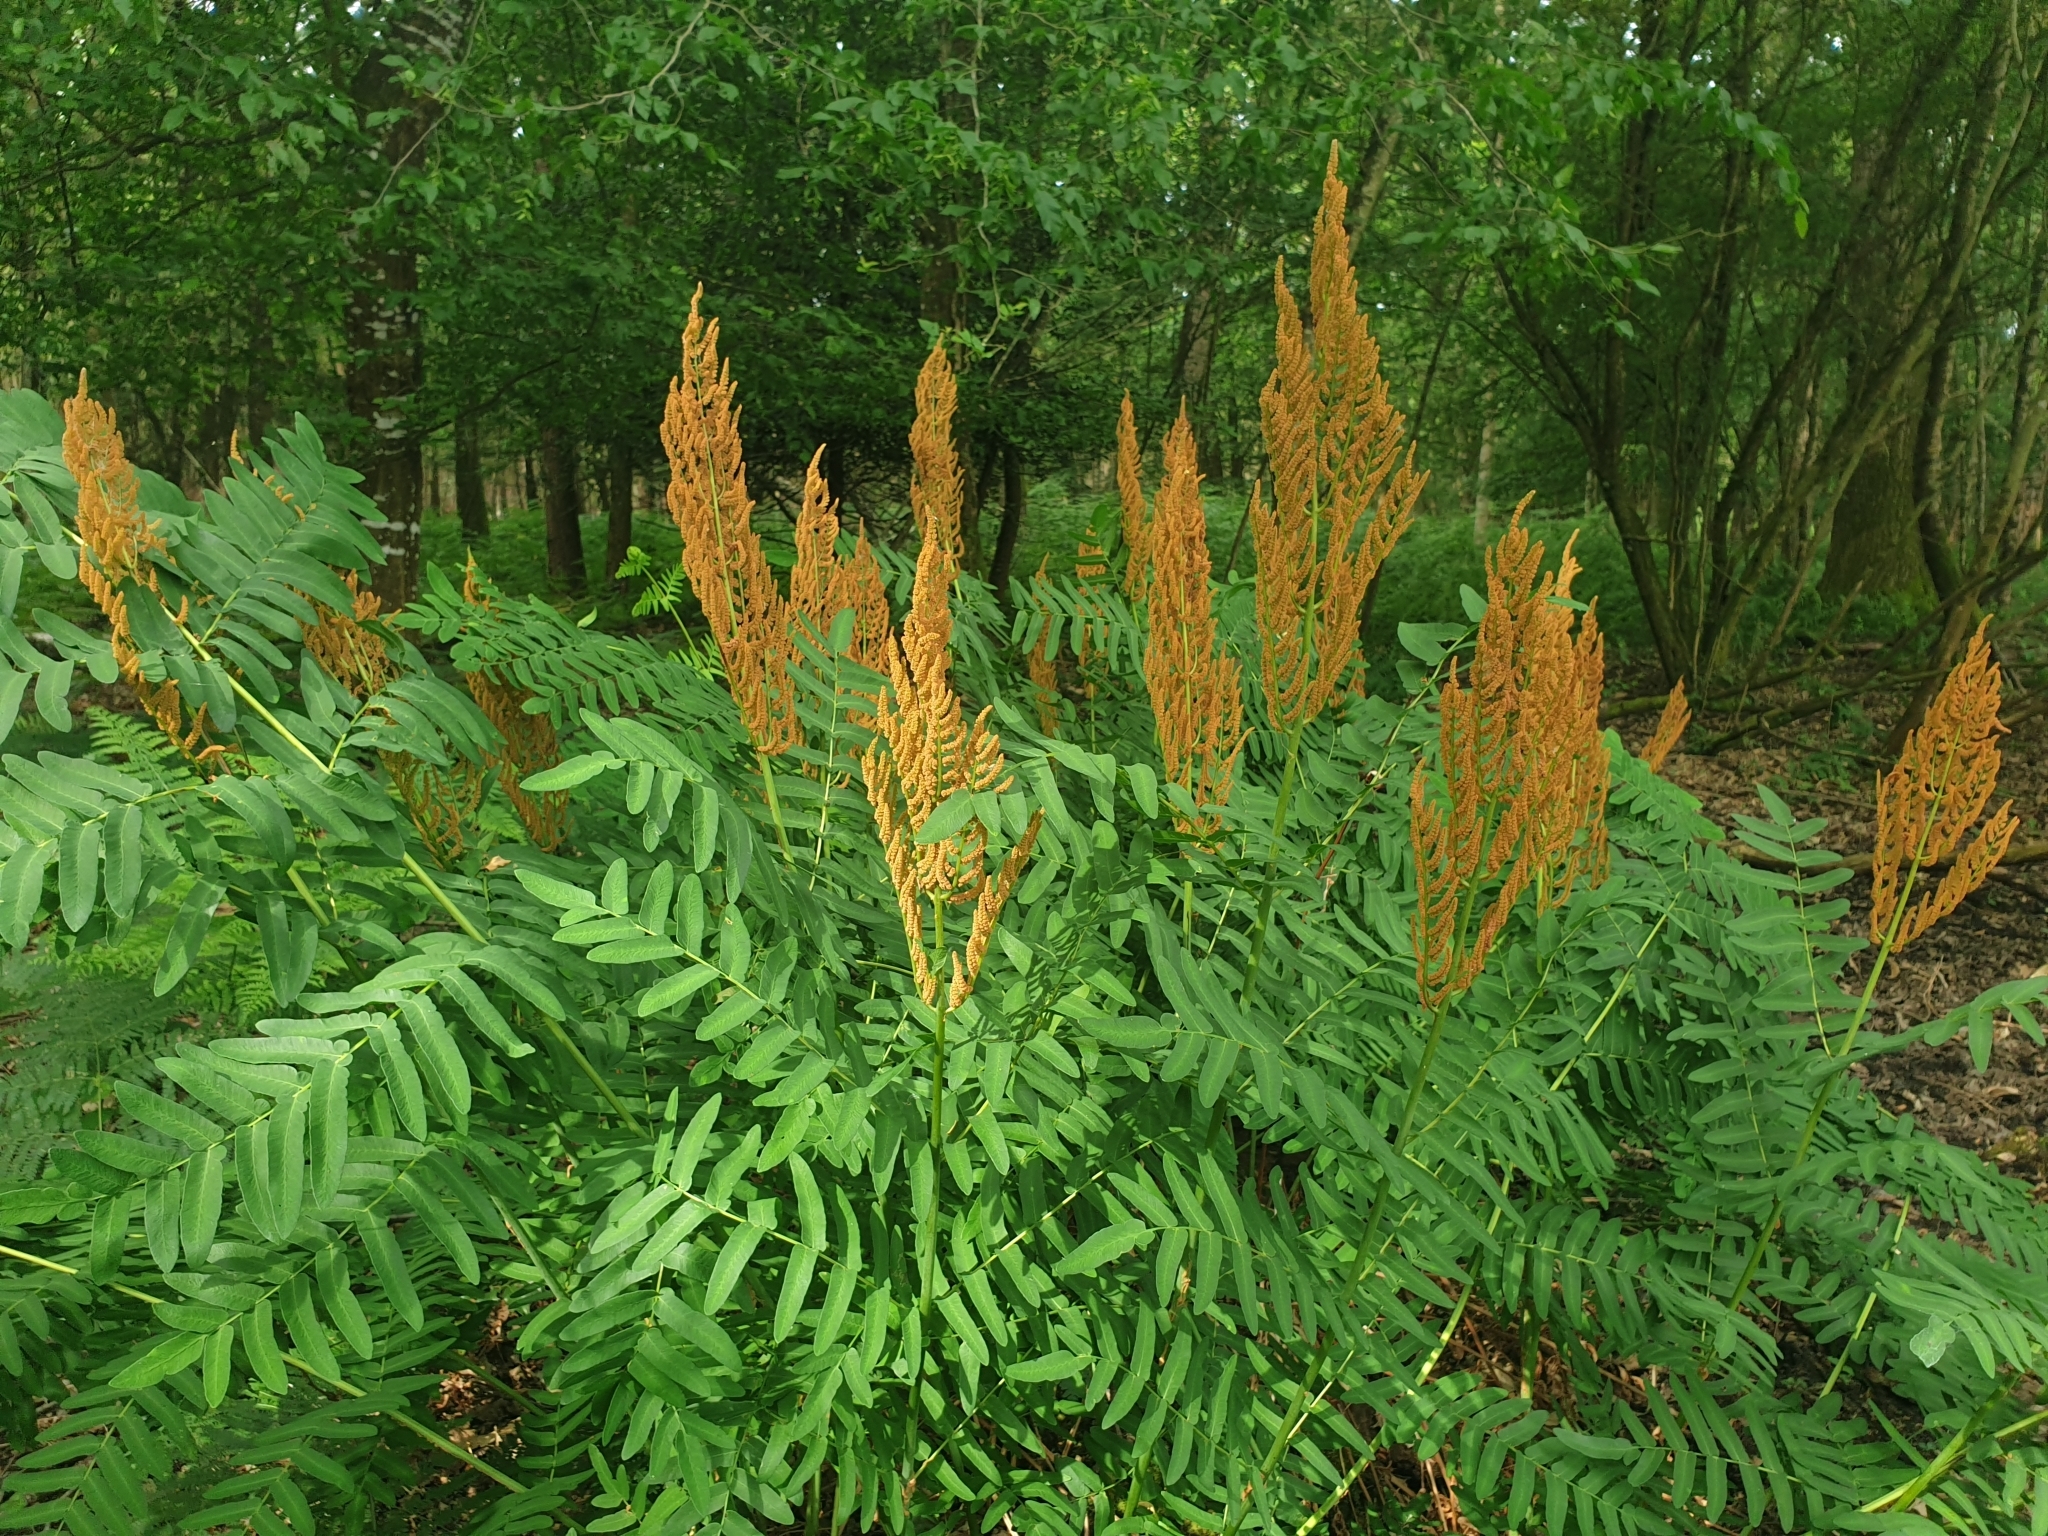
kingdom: Plantae
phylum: Tracheophyta
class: Polypodiopsida
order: Osmundales
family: Osmundaceae
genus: Osmunda
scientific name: Osmunda regalis
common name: Royal fern
